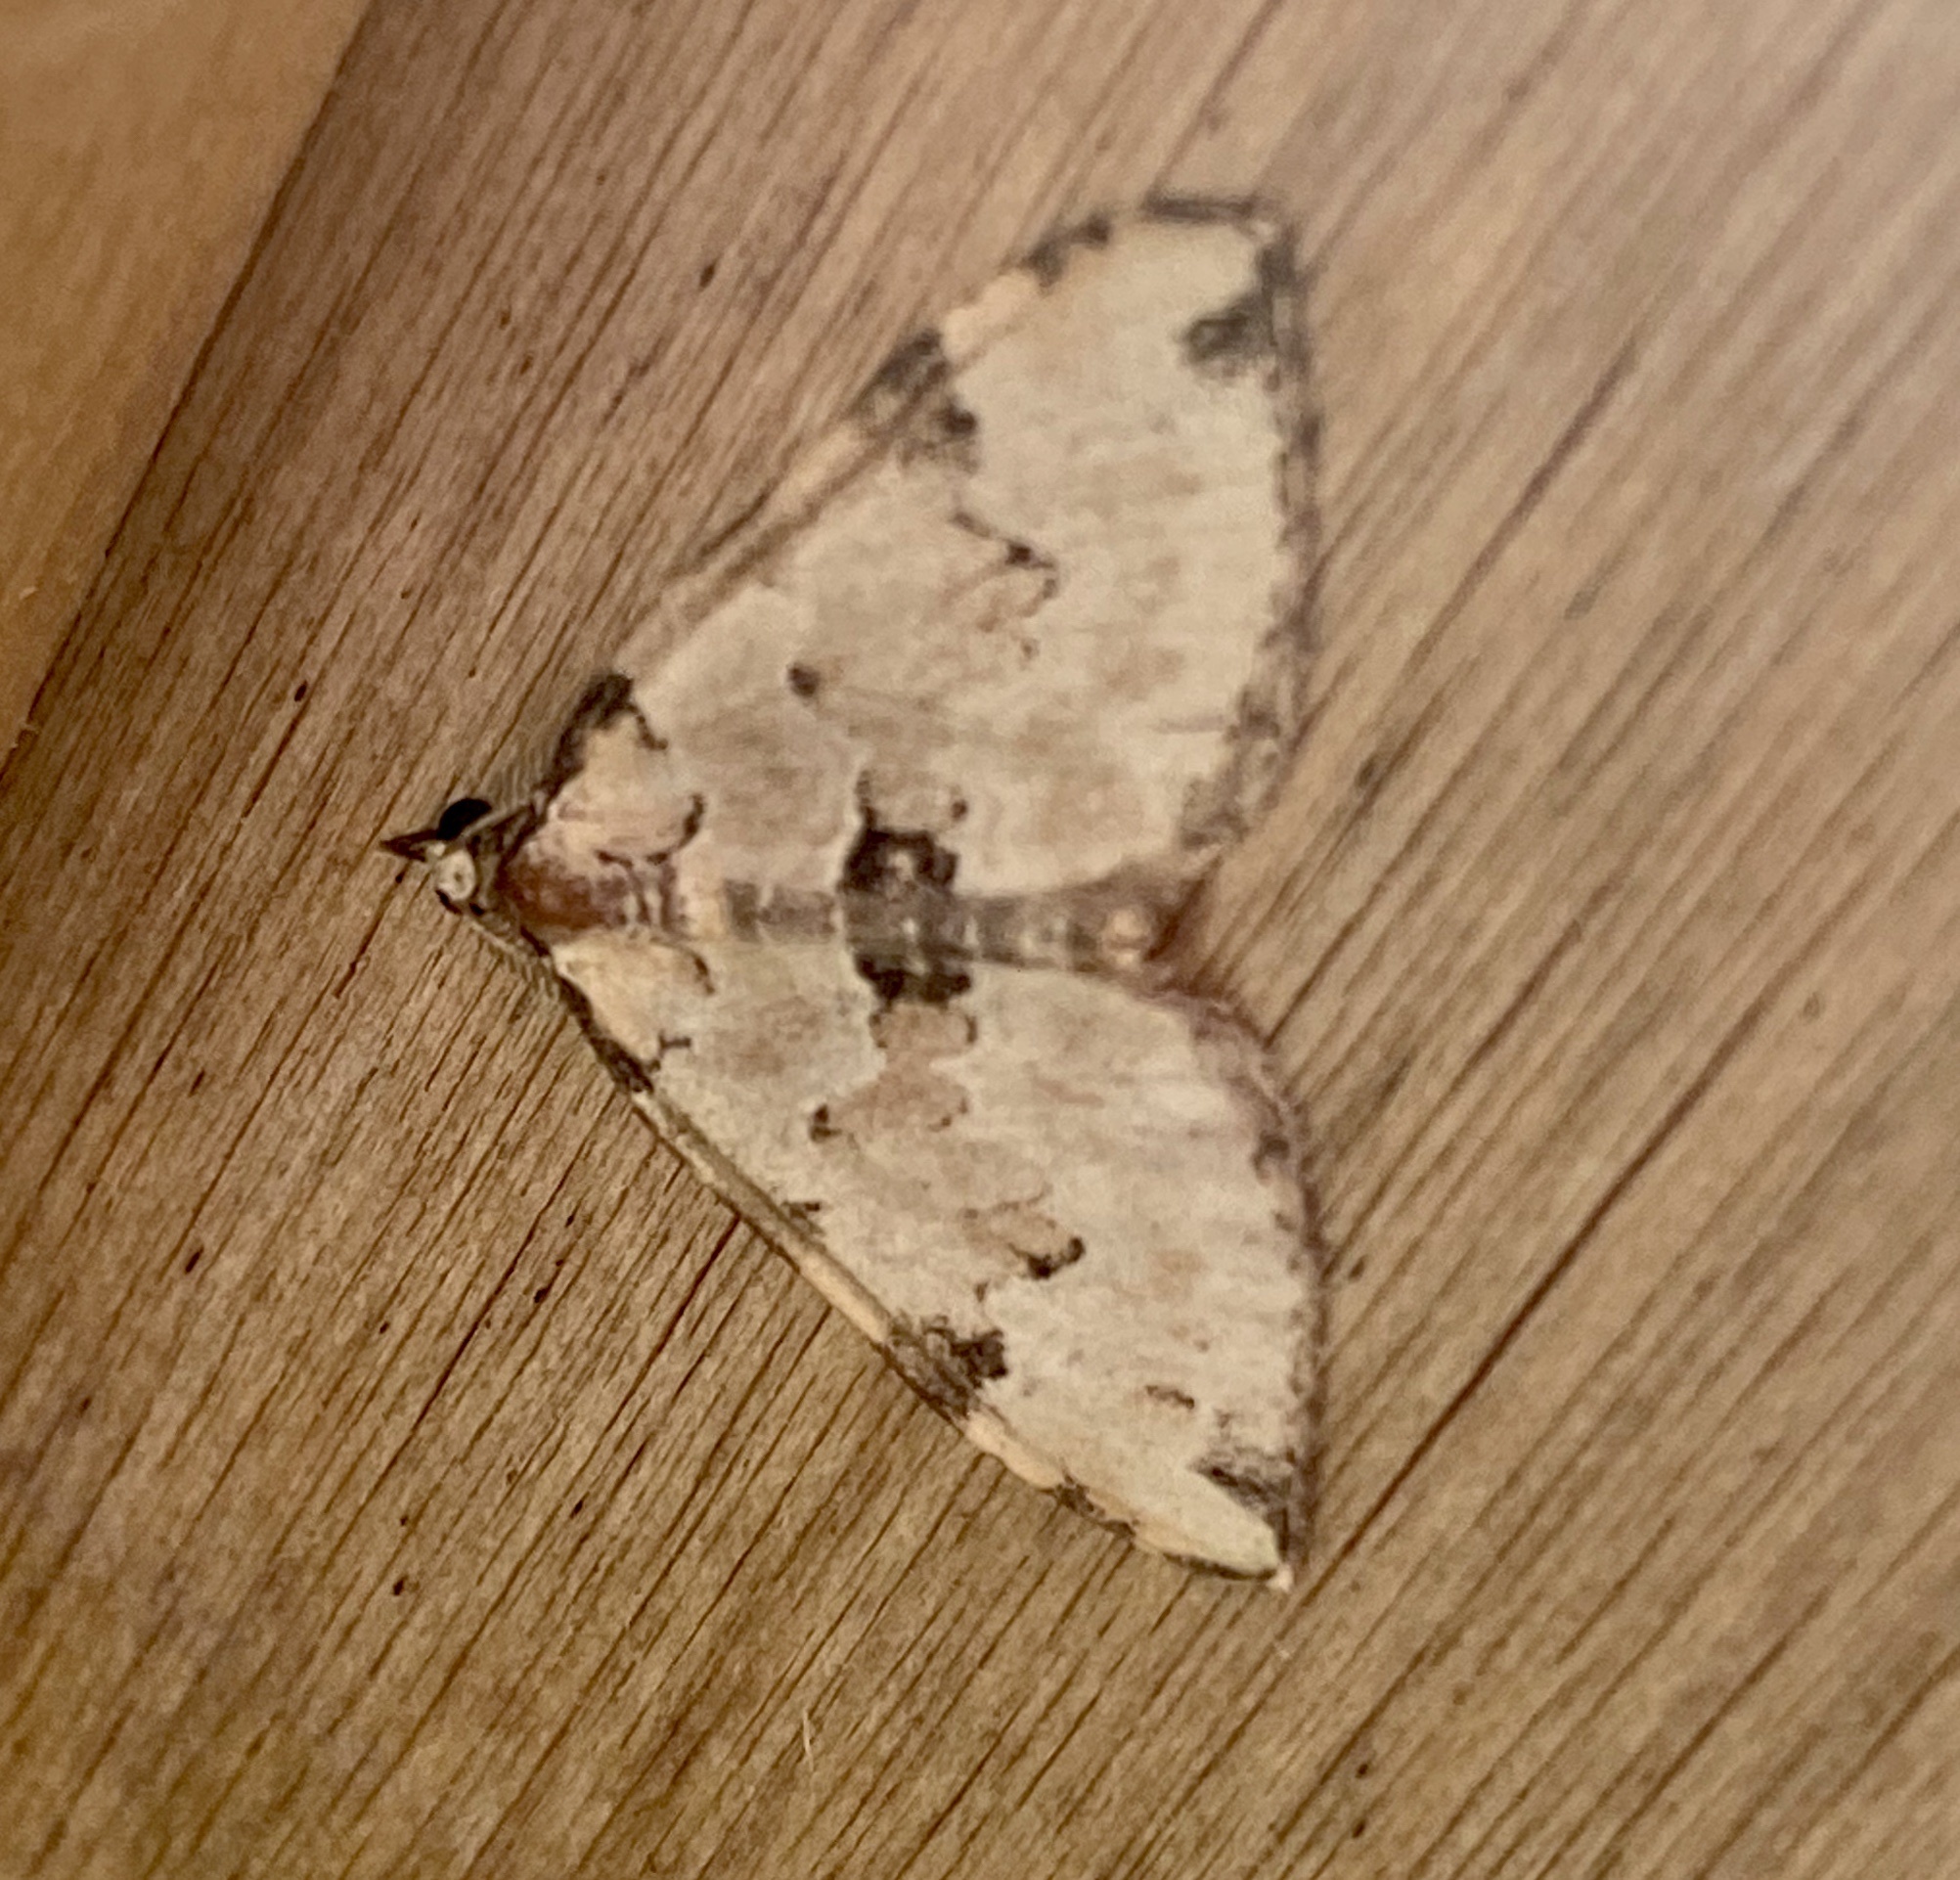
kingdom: Animalia
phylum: Arthropoda
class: Insecta
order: Lepidoptera
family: Geometridae
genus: Colostygia
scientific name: Colostygia pectinataria
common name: Green carpet
